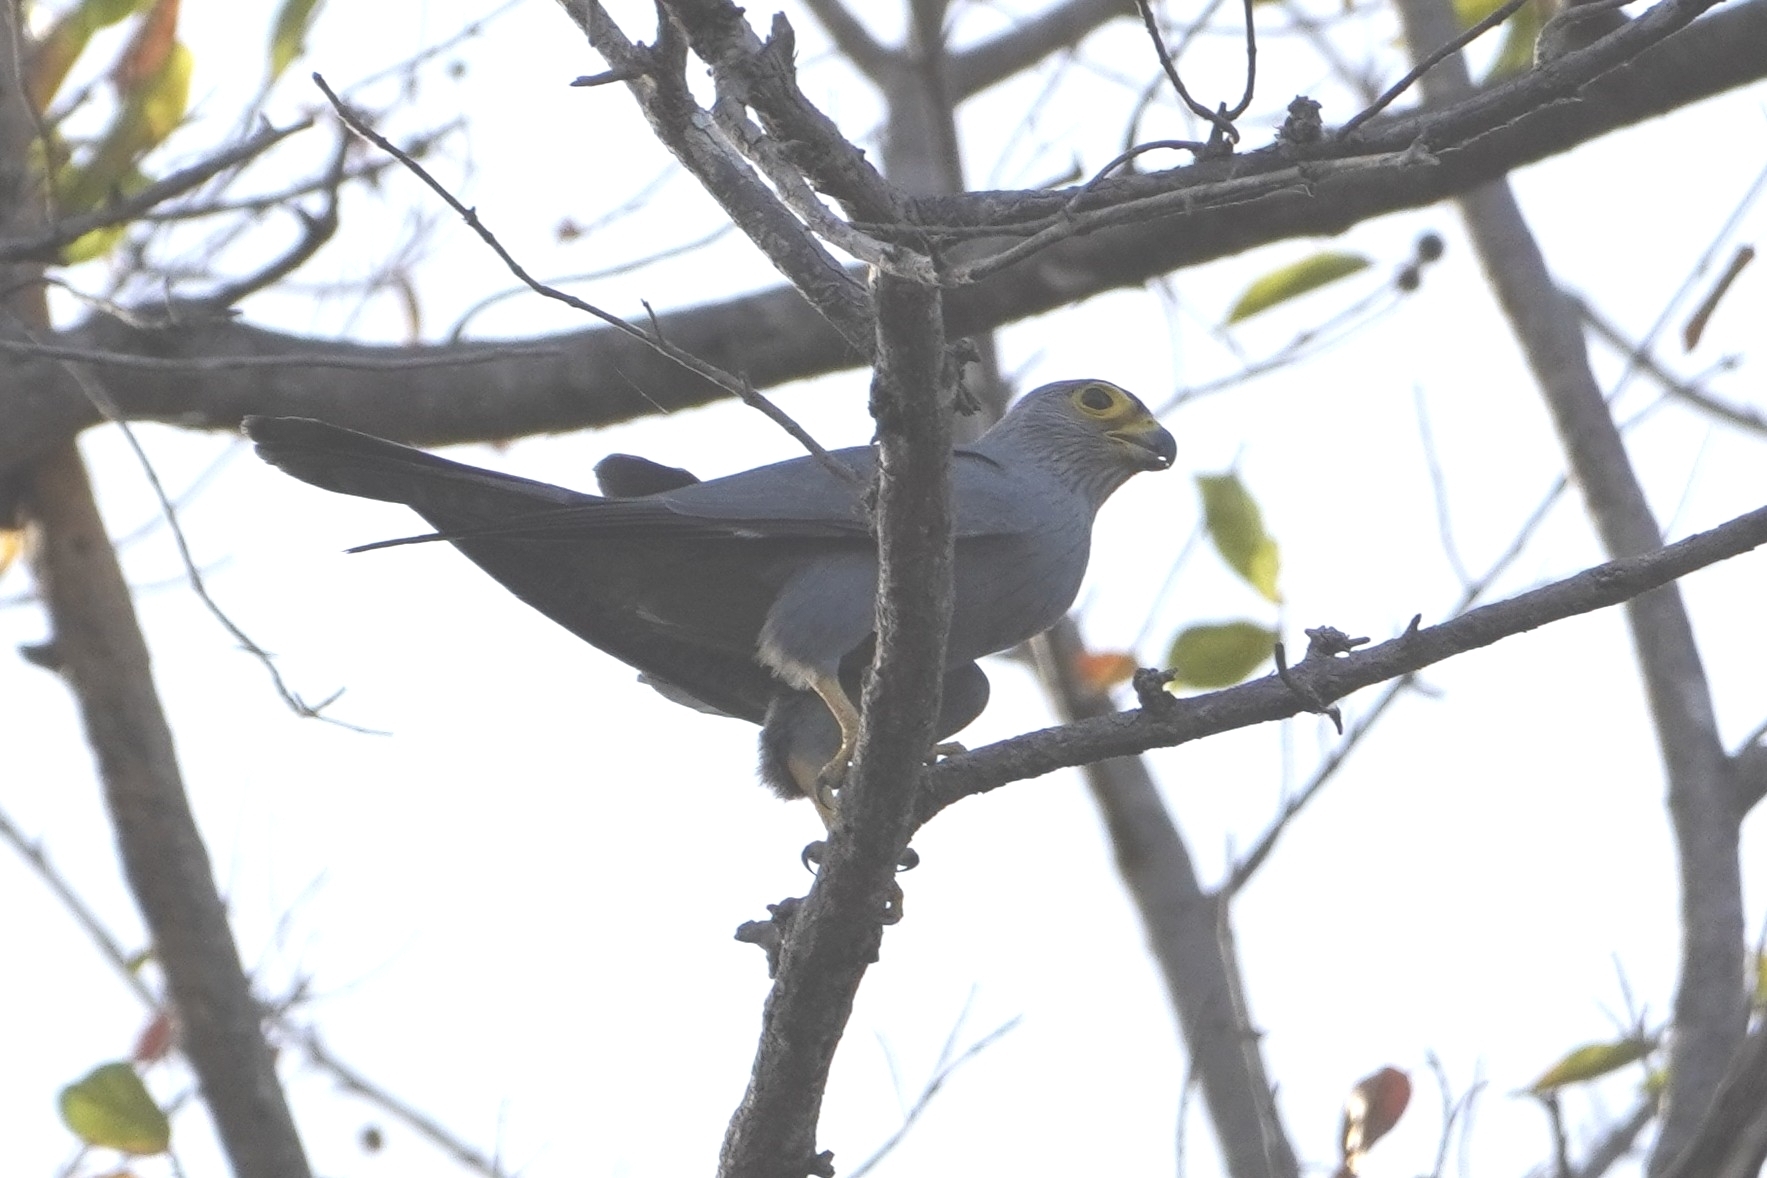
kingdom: Animalia
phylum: Chordata
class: Aves
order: Falconiformes
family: Falconidae
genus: Falco
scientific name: Falco ardosiaceus
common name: Grey kestrel
